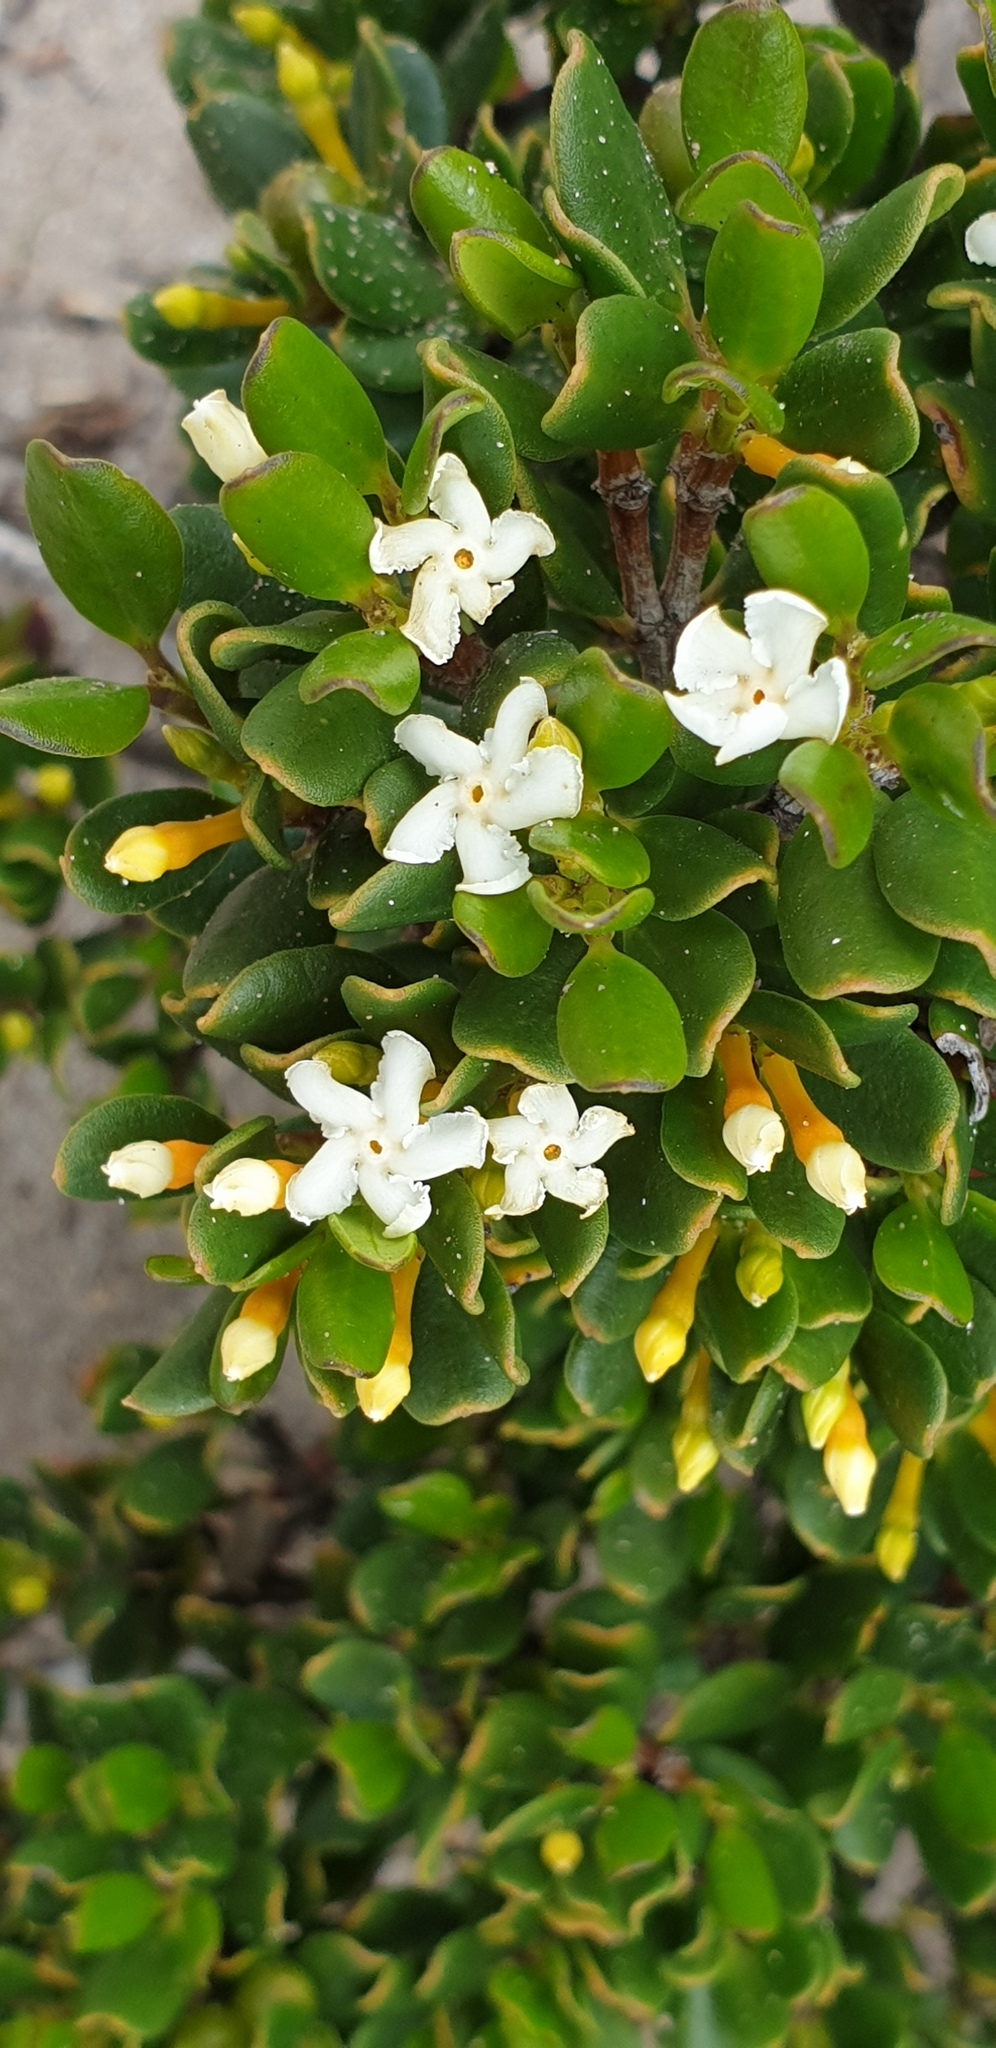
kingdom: Plantae
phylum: Tracheophyta
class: Magnoliopsida
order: Gentianales
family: Apocynaceae
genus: Alyxia
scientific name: Alyxia buxifolia
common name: Dysentery-bush
